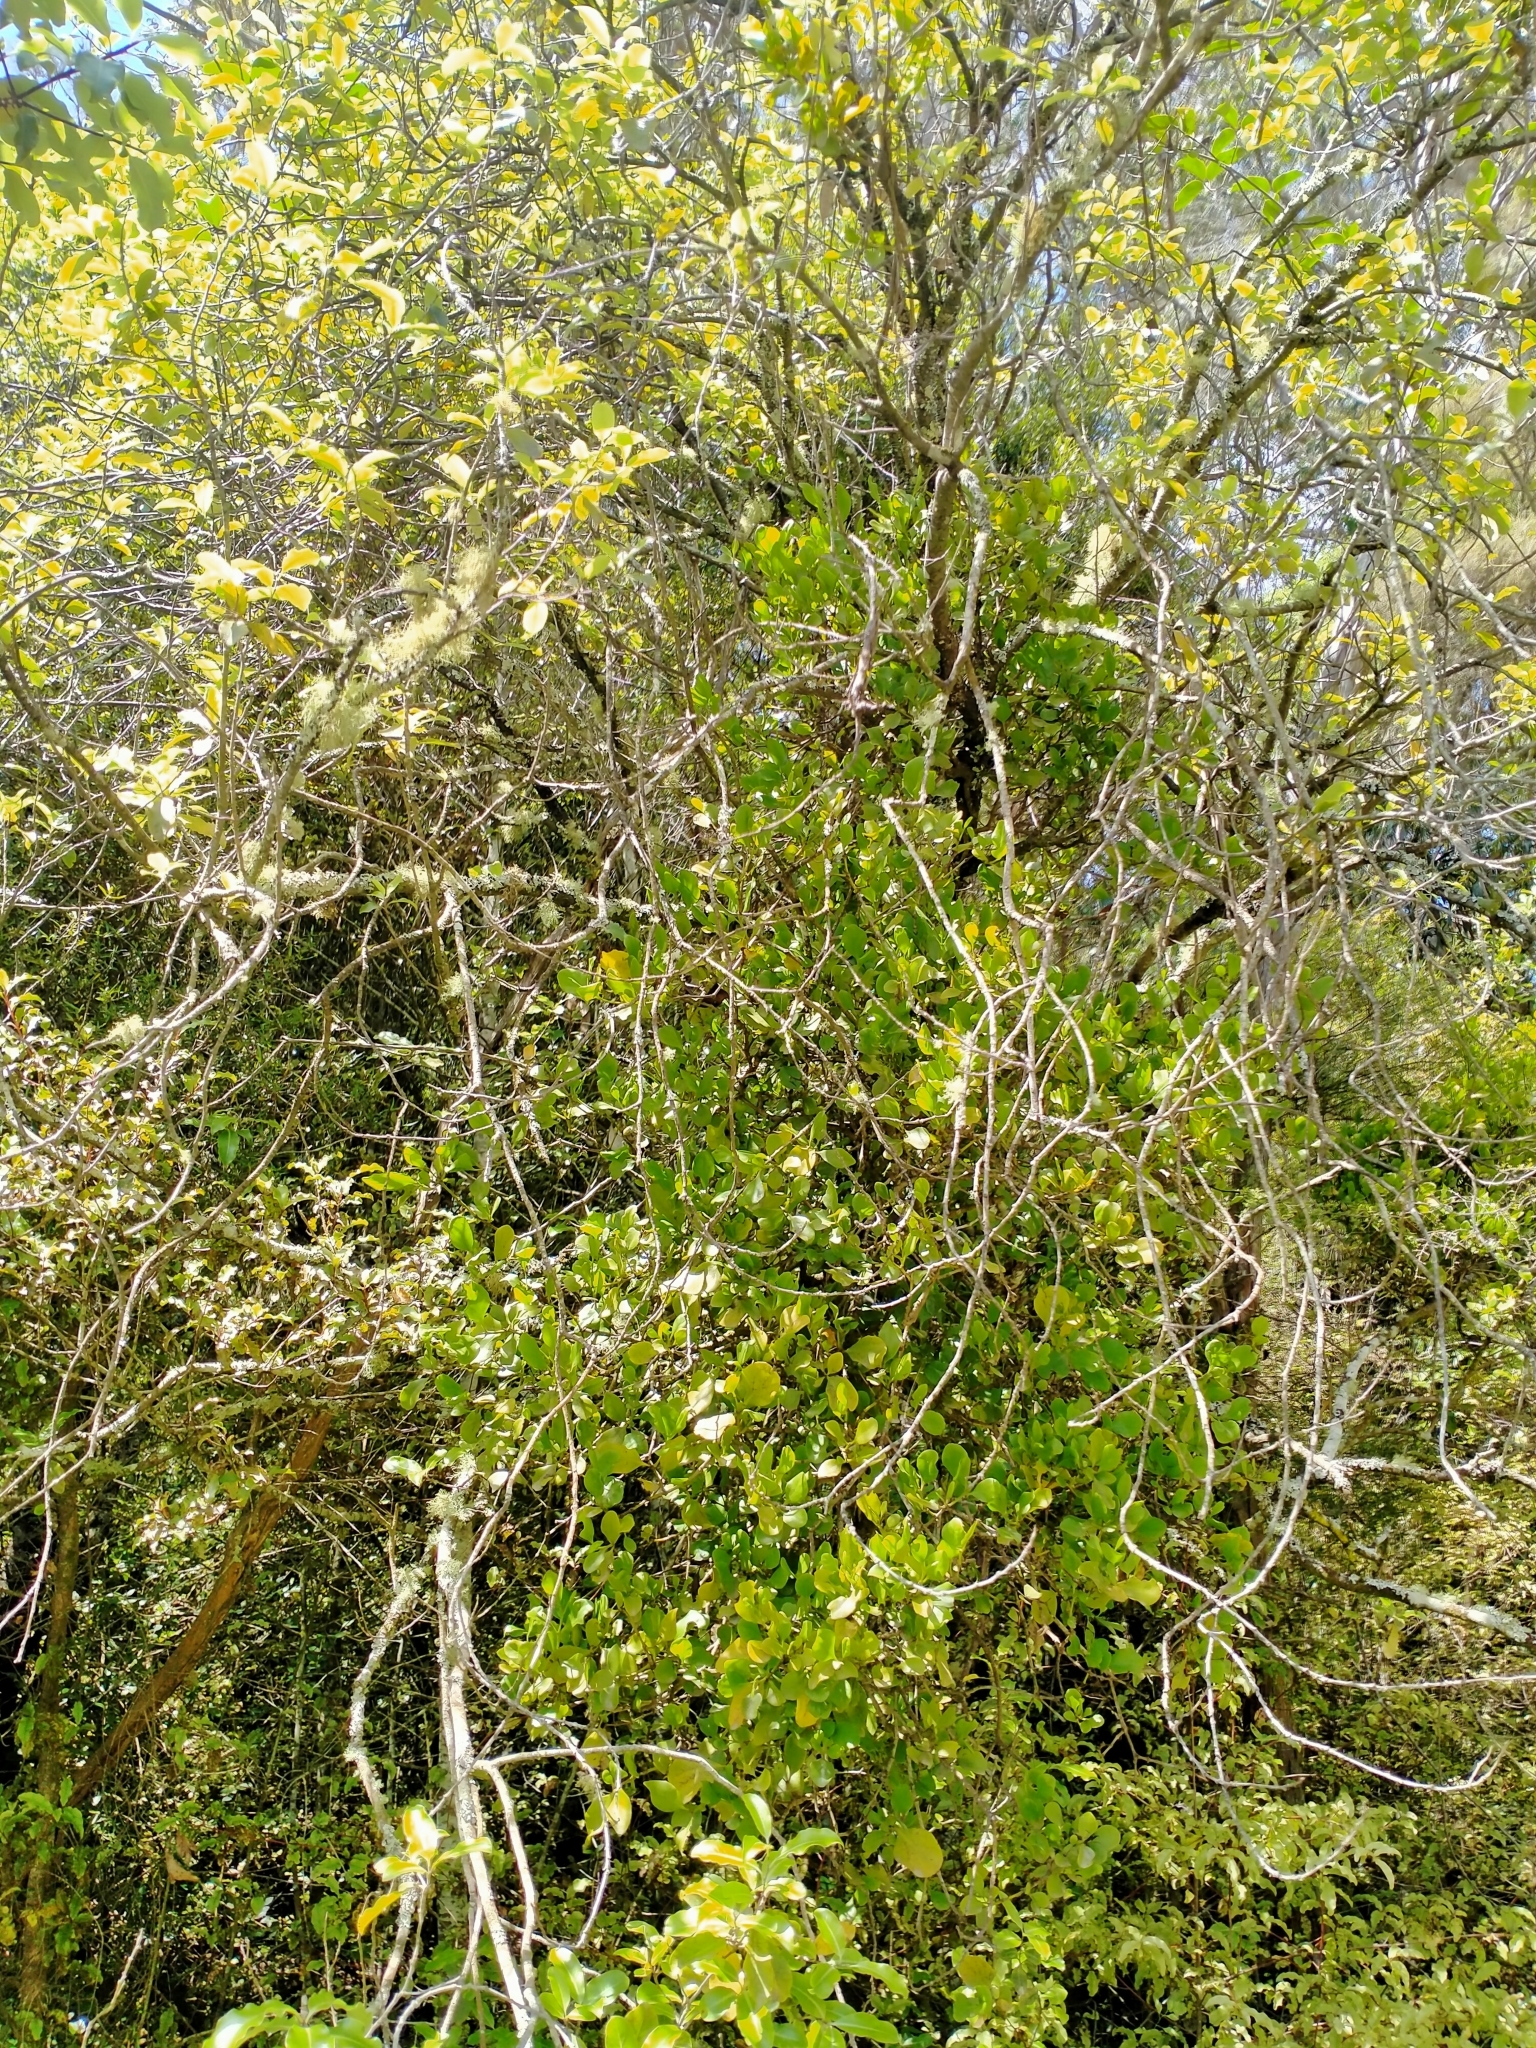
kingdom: Plantae
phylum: Tracheophyta
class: Magnoliopsida
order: Santalales
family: Loranthaceae
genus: Ileostylus
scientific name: Ileostylus micranthus
